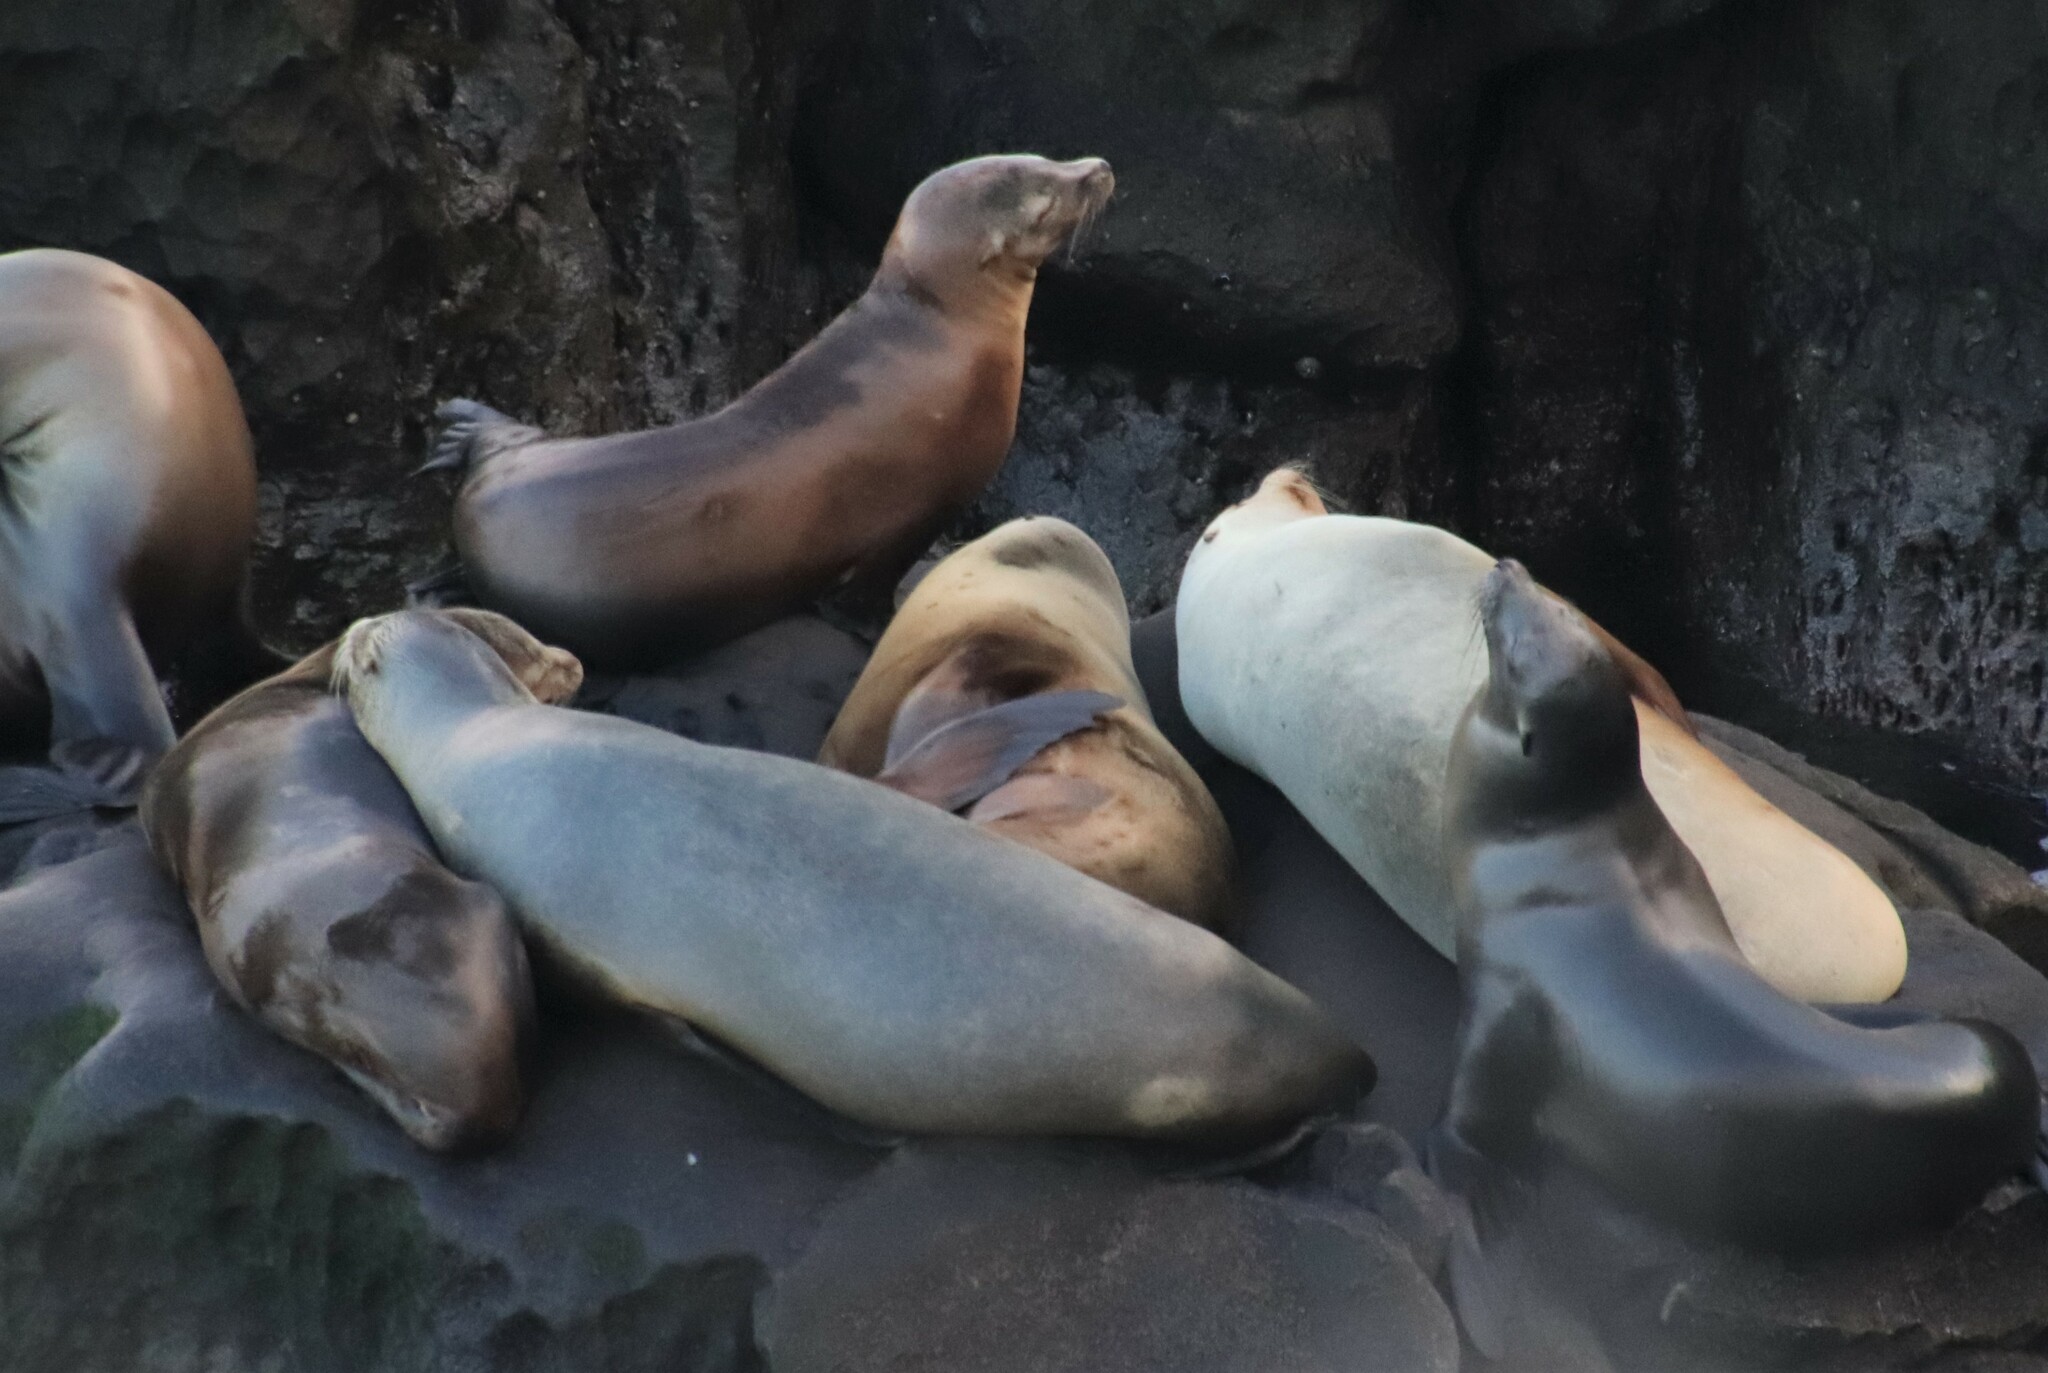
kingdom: Animalia
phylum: Chordata
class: Mammalia
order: Carnivora
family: Otariidae
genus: Zalophus
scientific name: Zalophus californianus
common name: California sea lion
